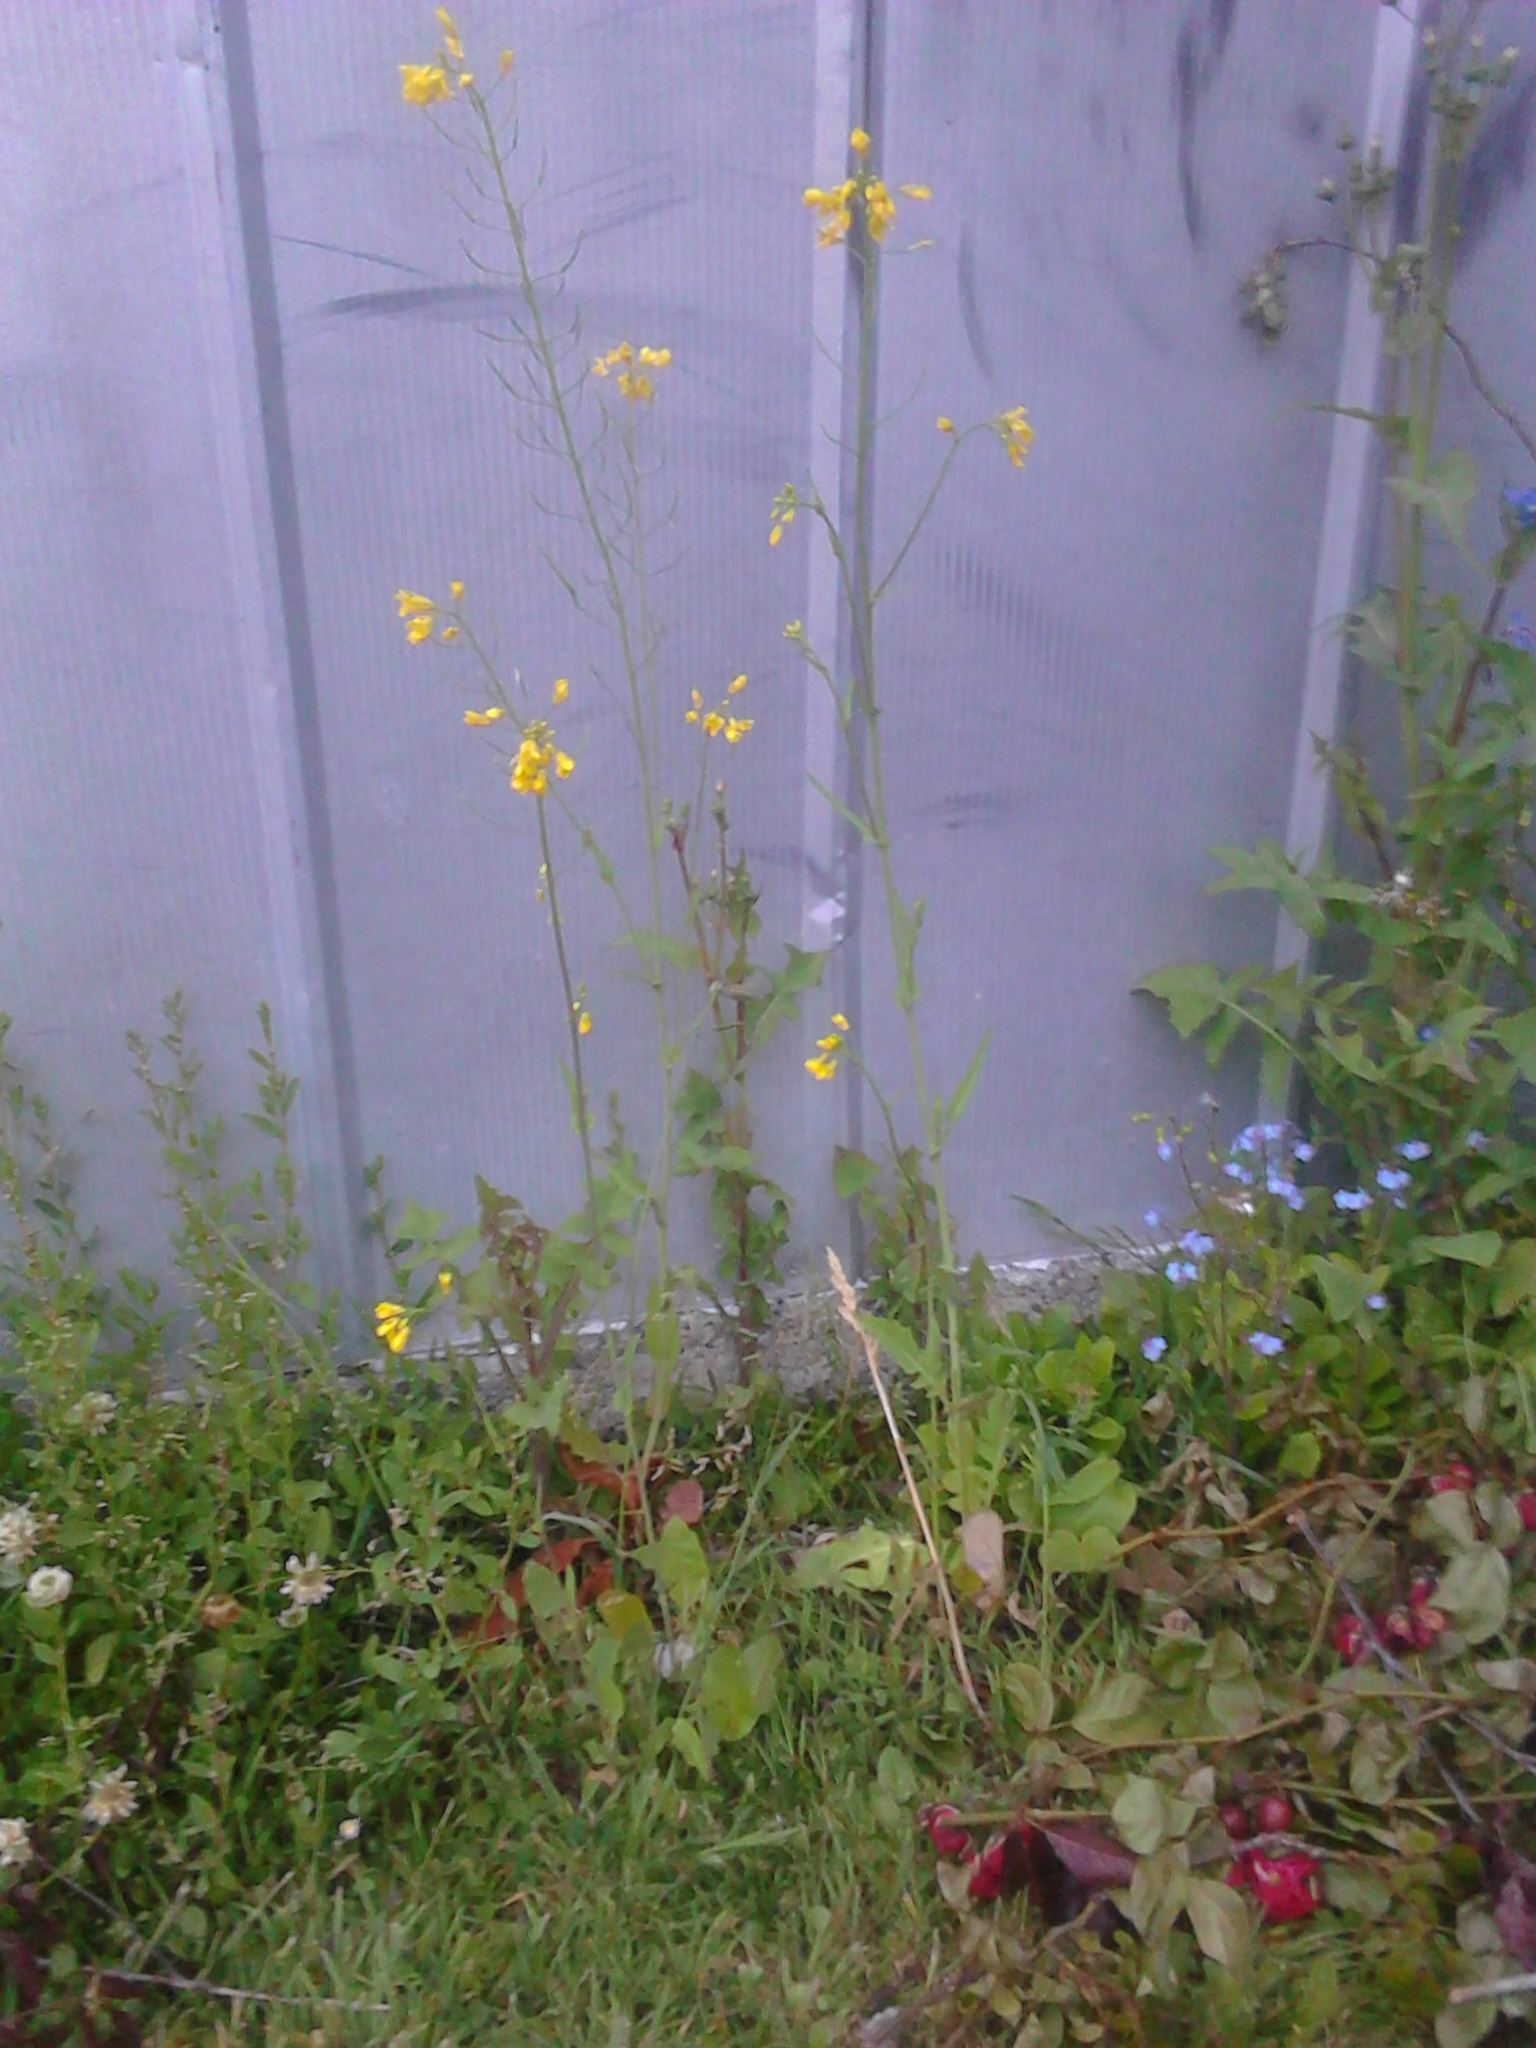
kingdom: Plantae
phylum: Tracheophyta
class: Magnoliopsida
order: Brassicales
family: Brassicaceae
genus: Brassica
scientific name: Brassica rapa
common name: Field mustard
